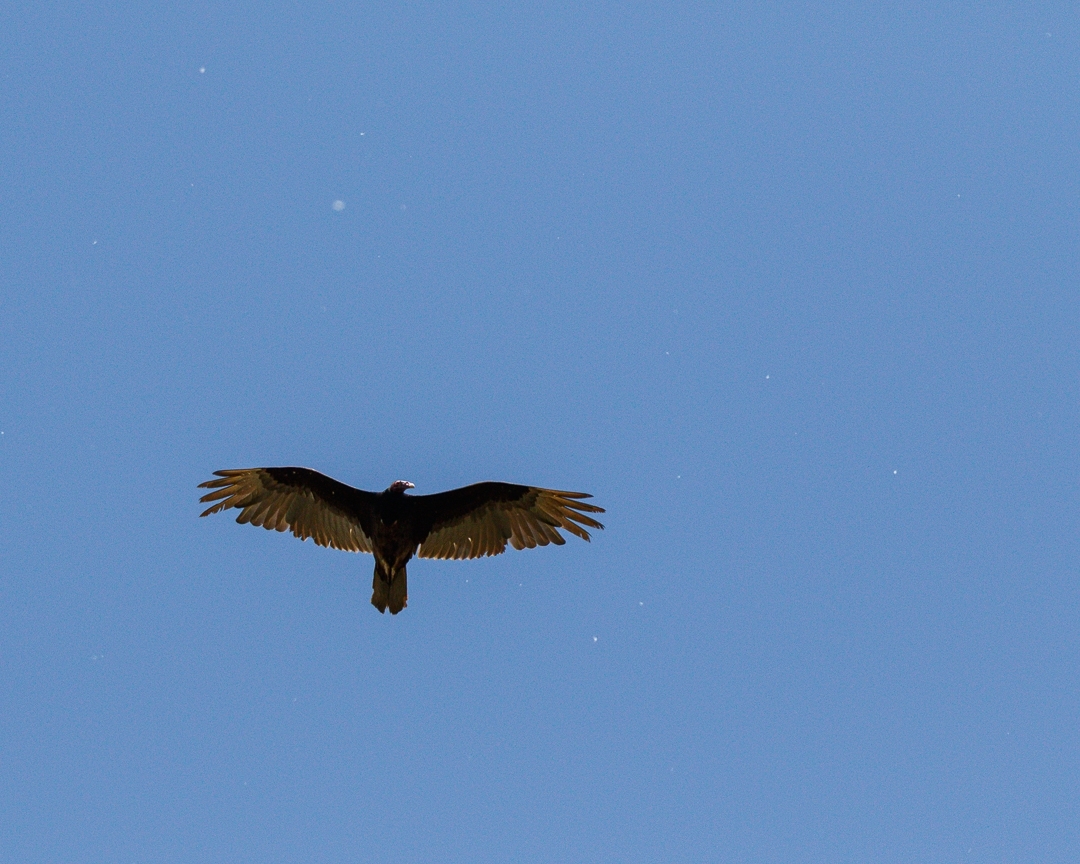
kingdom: Animalia
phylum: Chordata
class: Aves
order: Accipitriformes
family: Cathartidae
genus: Cathartes
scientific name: Cathartes aura
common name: Turkey vulture
